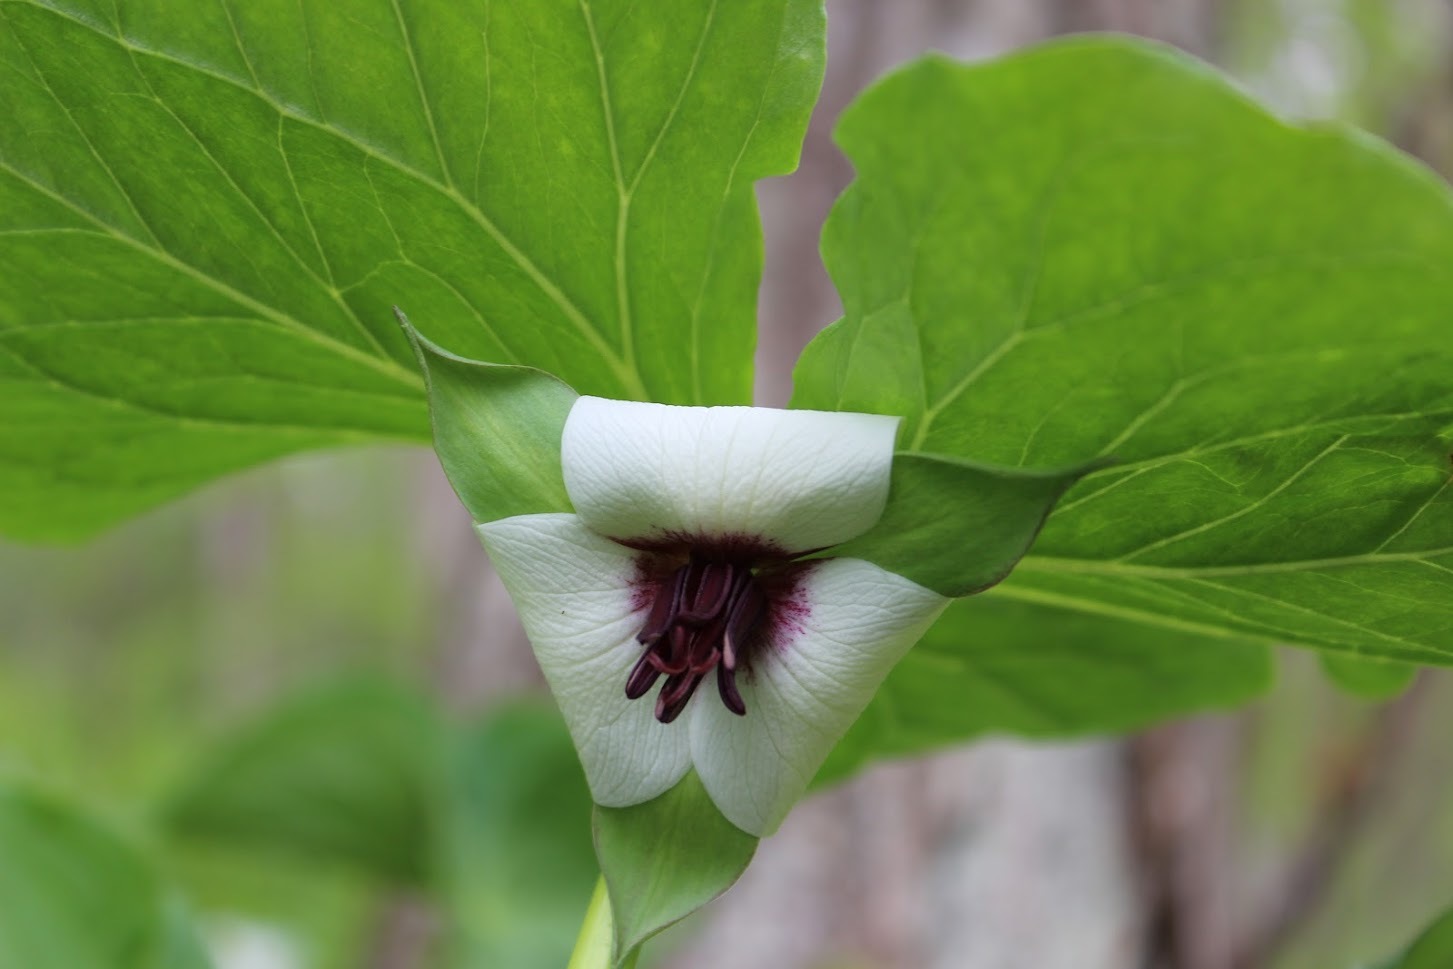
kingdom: Plantae
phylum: Tracheophyta
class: Liliopsida
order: Liliales
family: Melanthiaceae
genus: Trillium
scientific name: Trillium rugelii
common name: Ill-scented trillium
